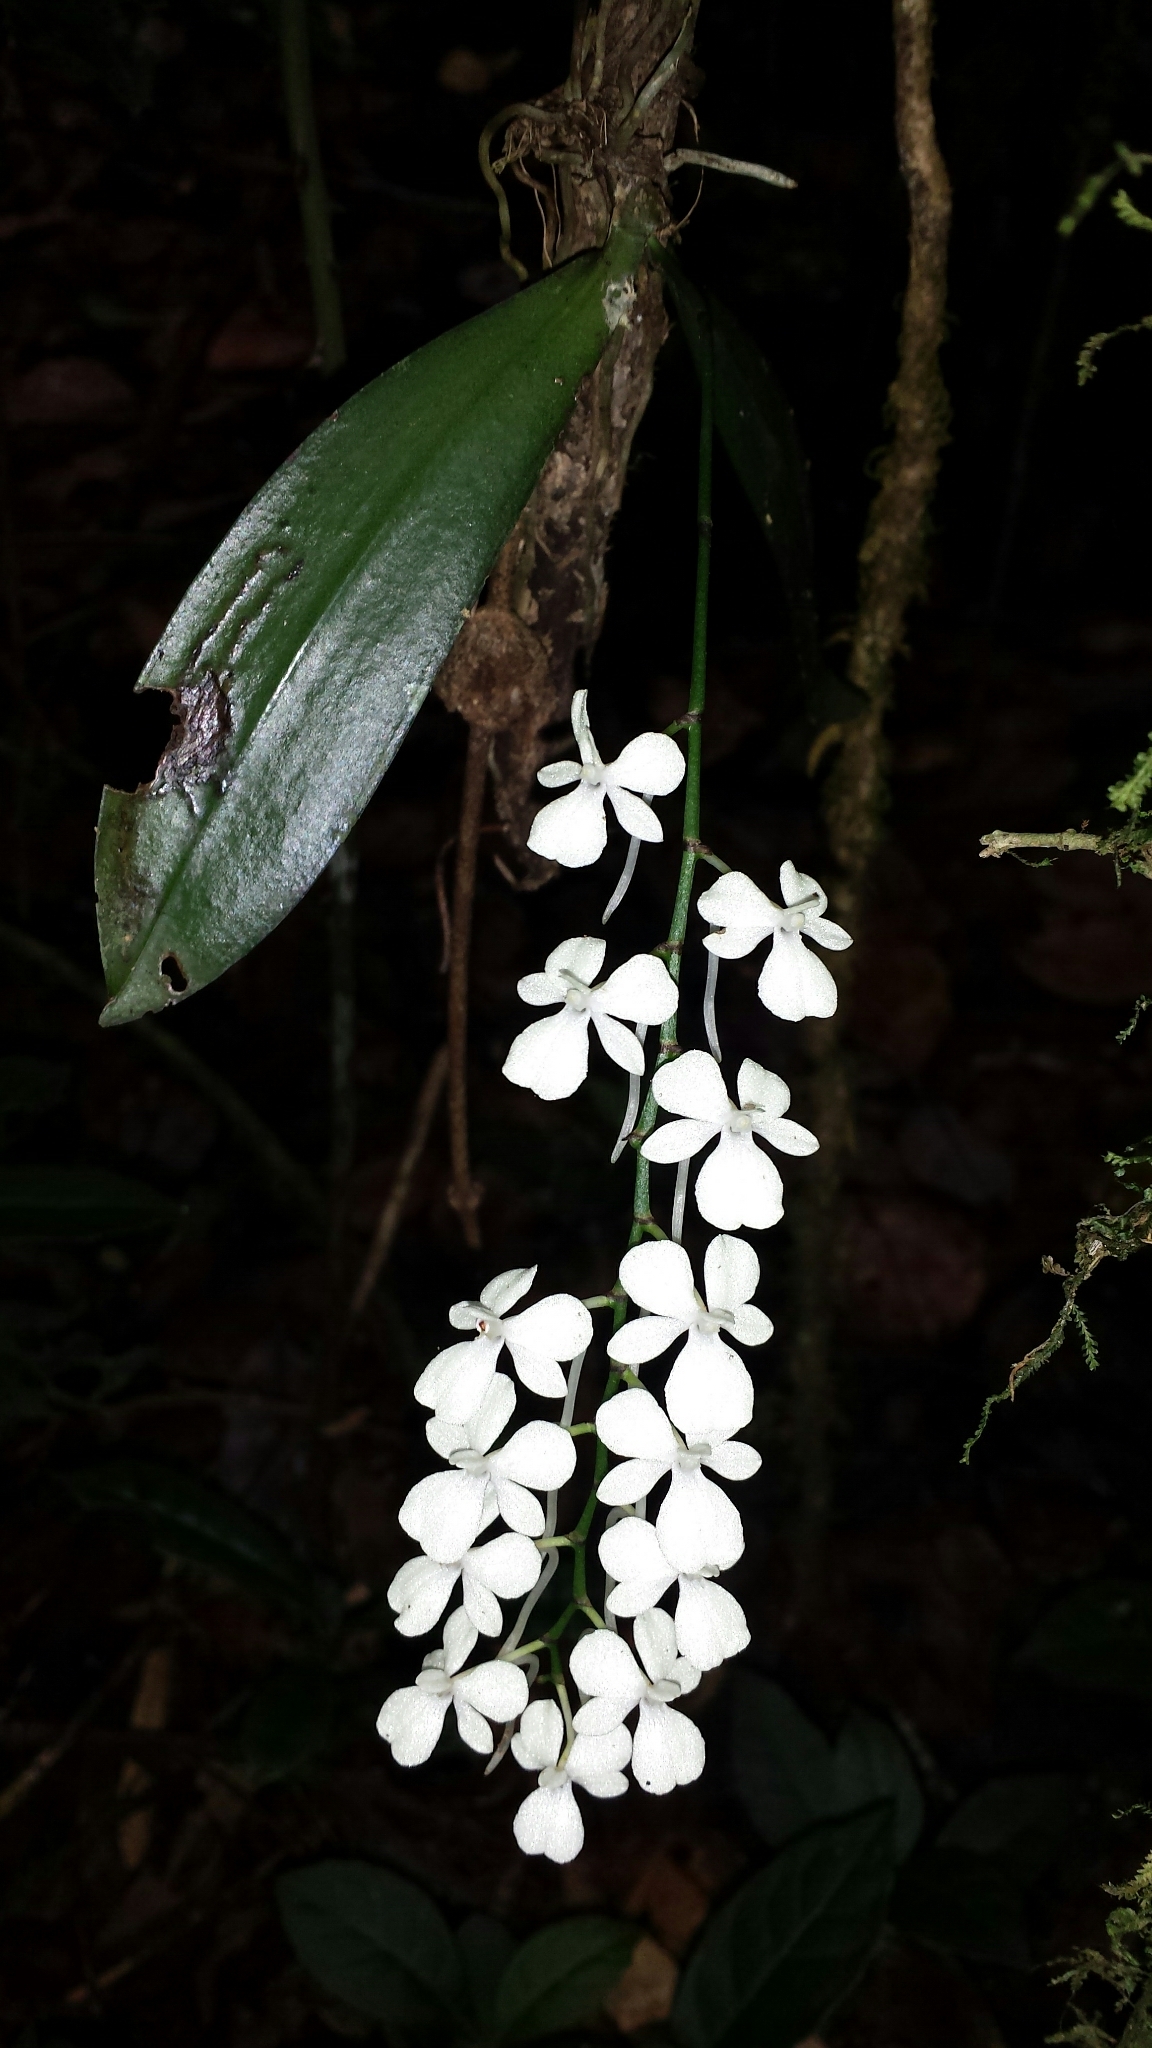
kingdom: Plantae
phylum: Tracheophyta
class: Liliopsida
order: Asparagales
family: Orchidaceae
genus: Aerangis
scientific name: Aerangis citrata
